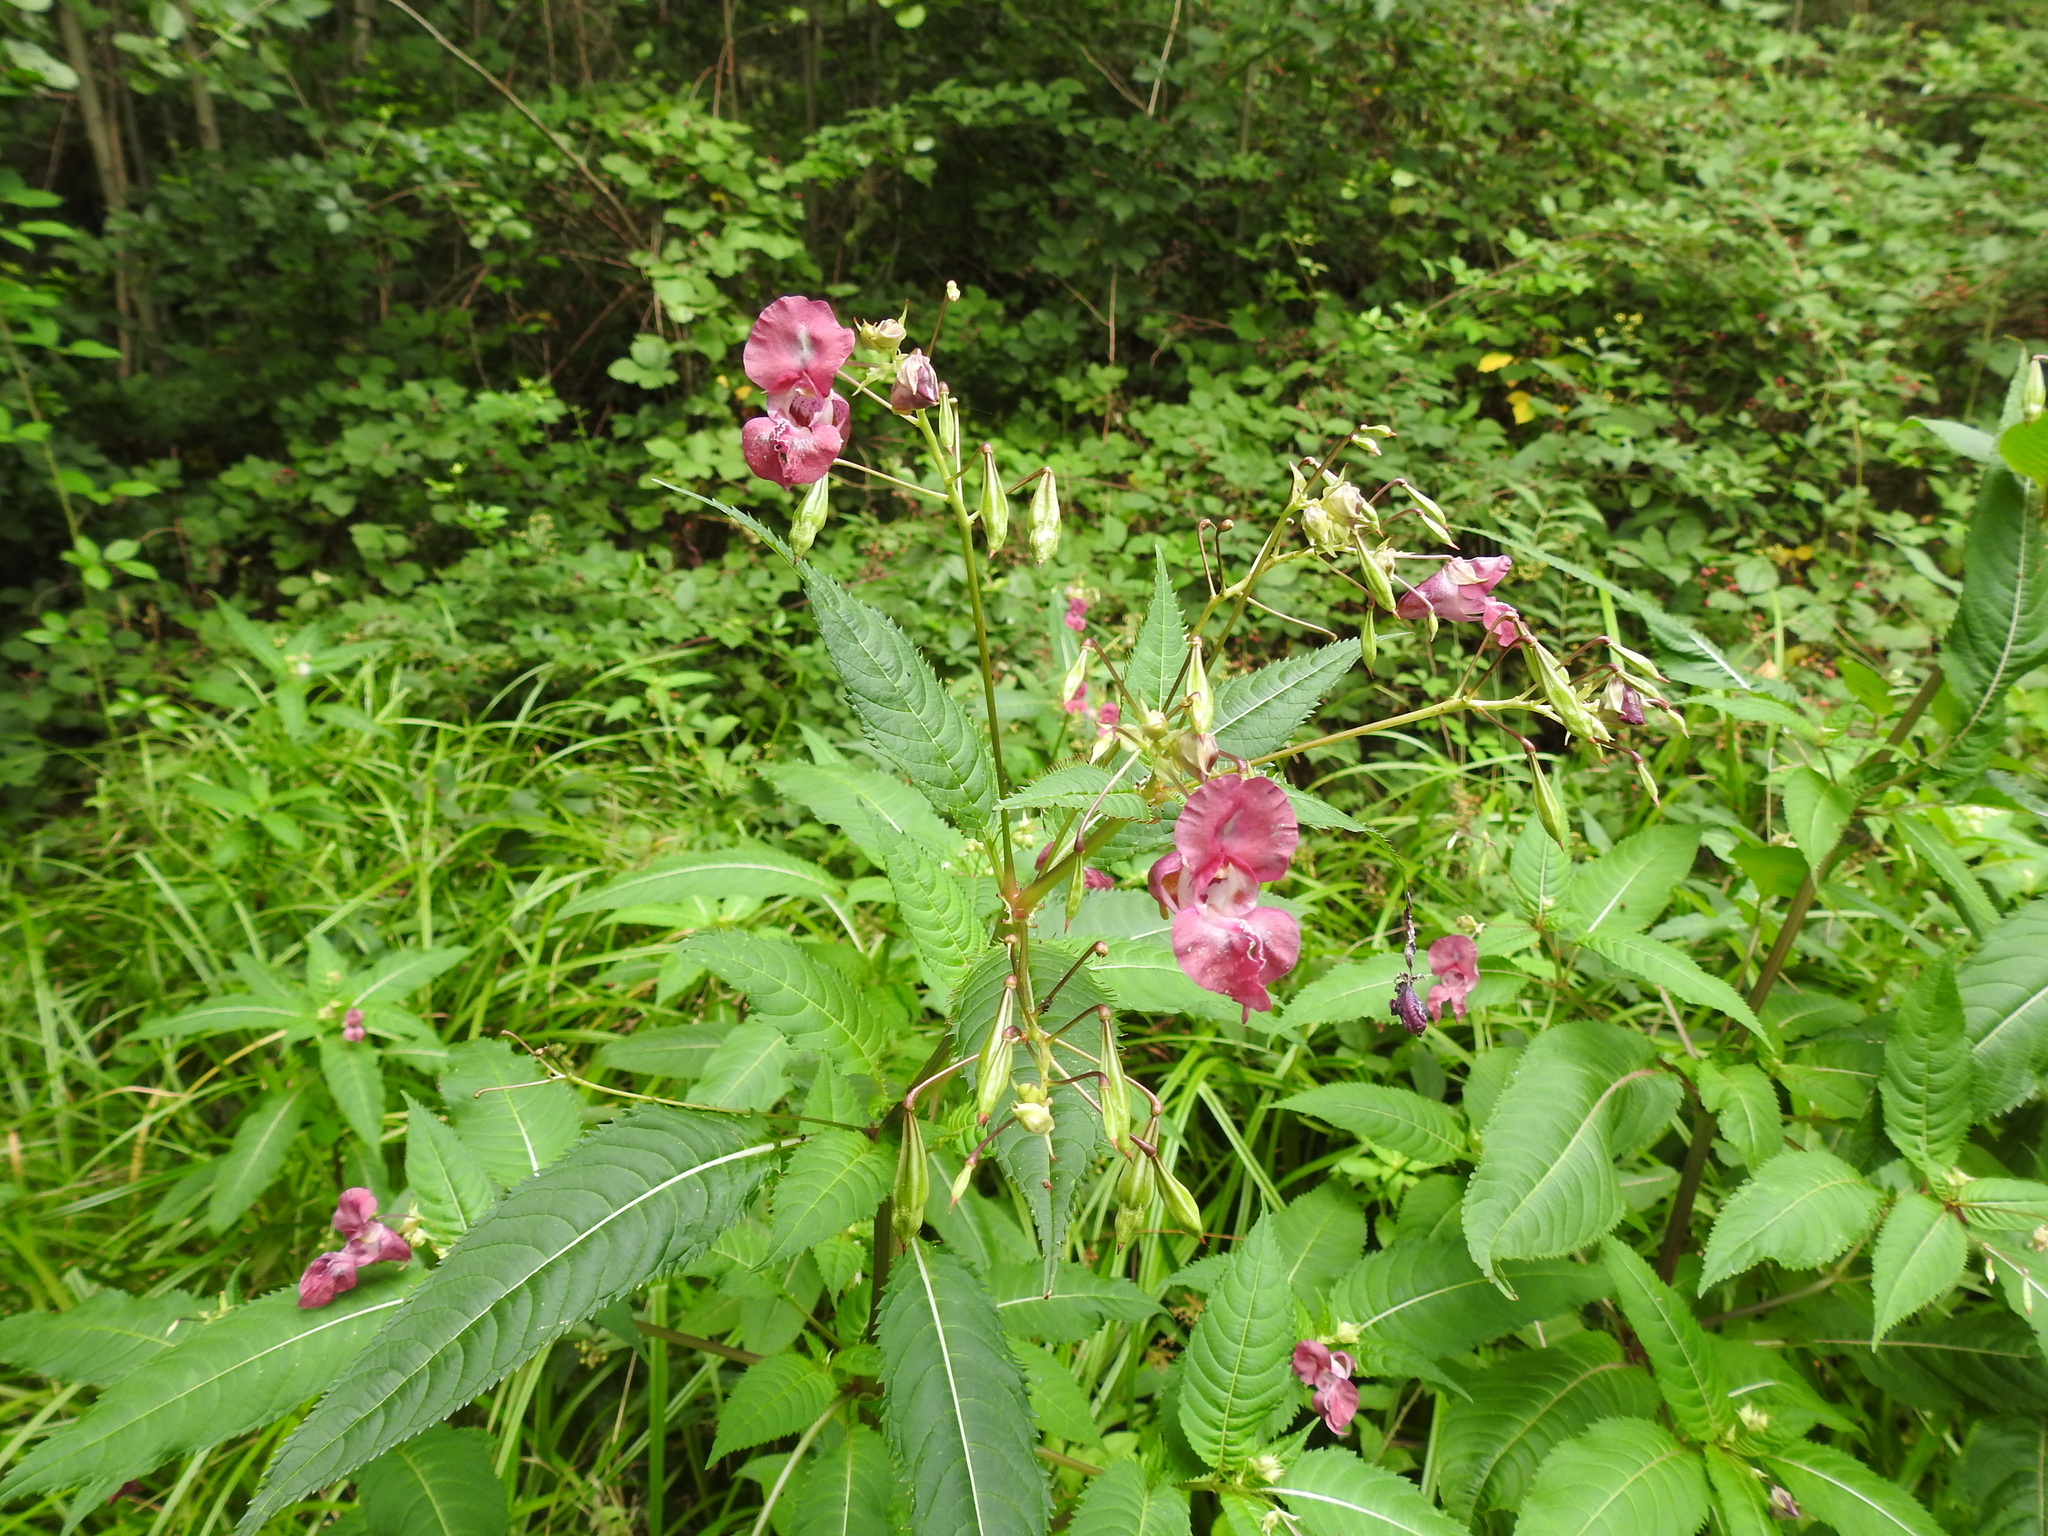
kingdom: Plantae
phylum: Tracheophyta
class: Magnoliopsida
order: Ericales
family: Balsaminaceae
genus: Impatiens
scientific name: Impatiens glandulifera
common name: Himalayan balsam
